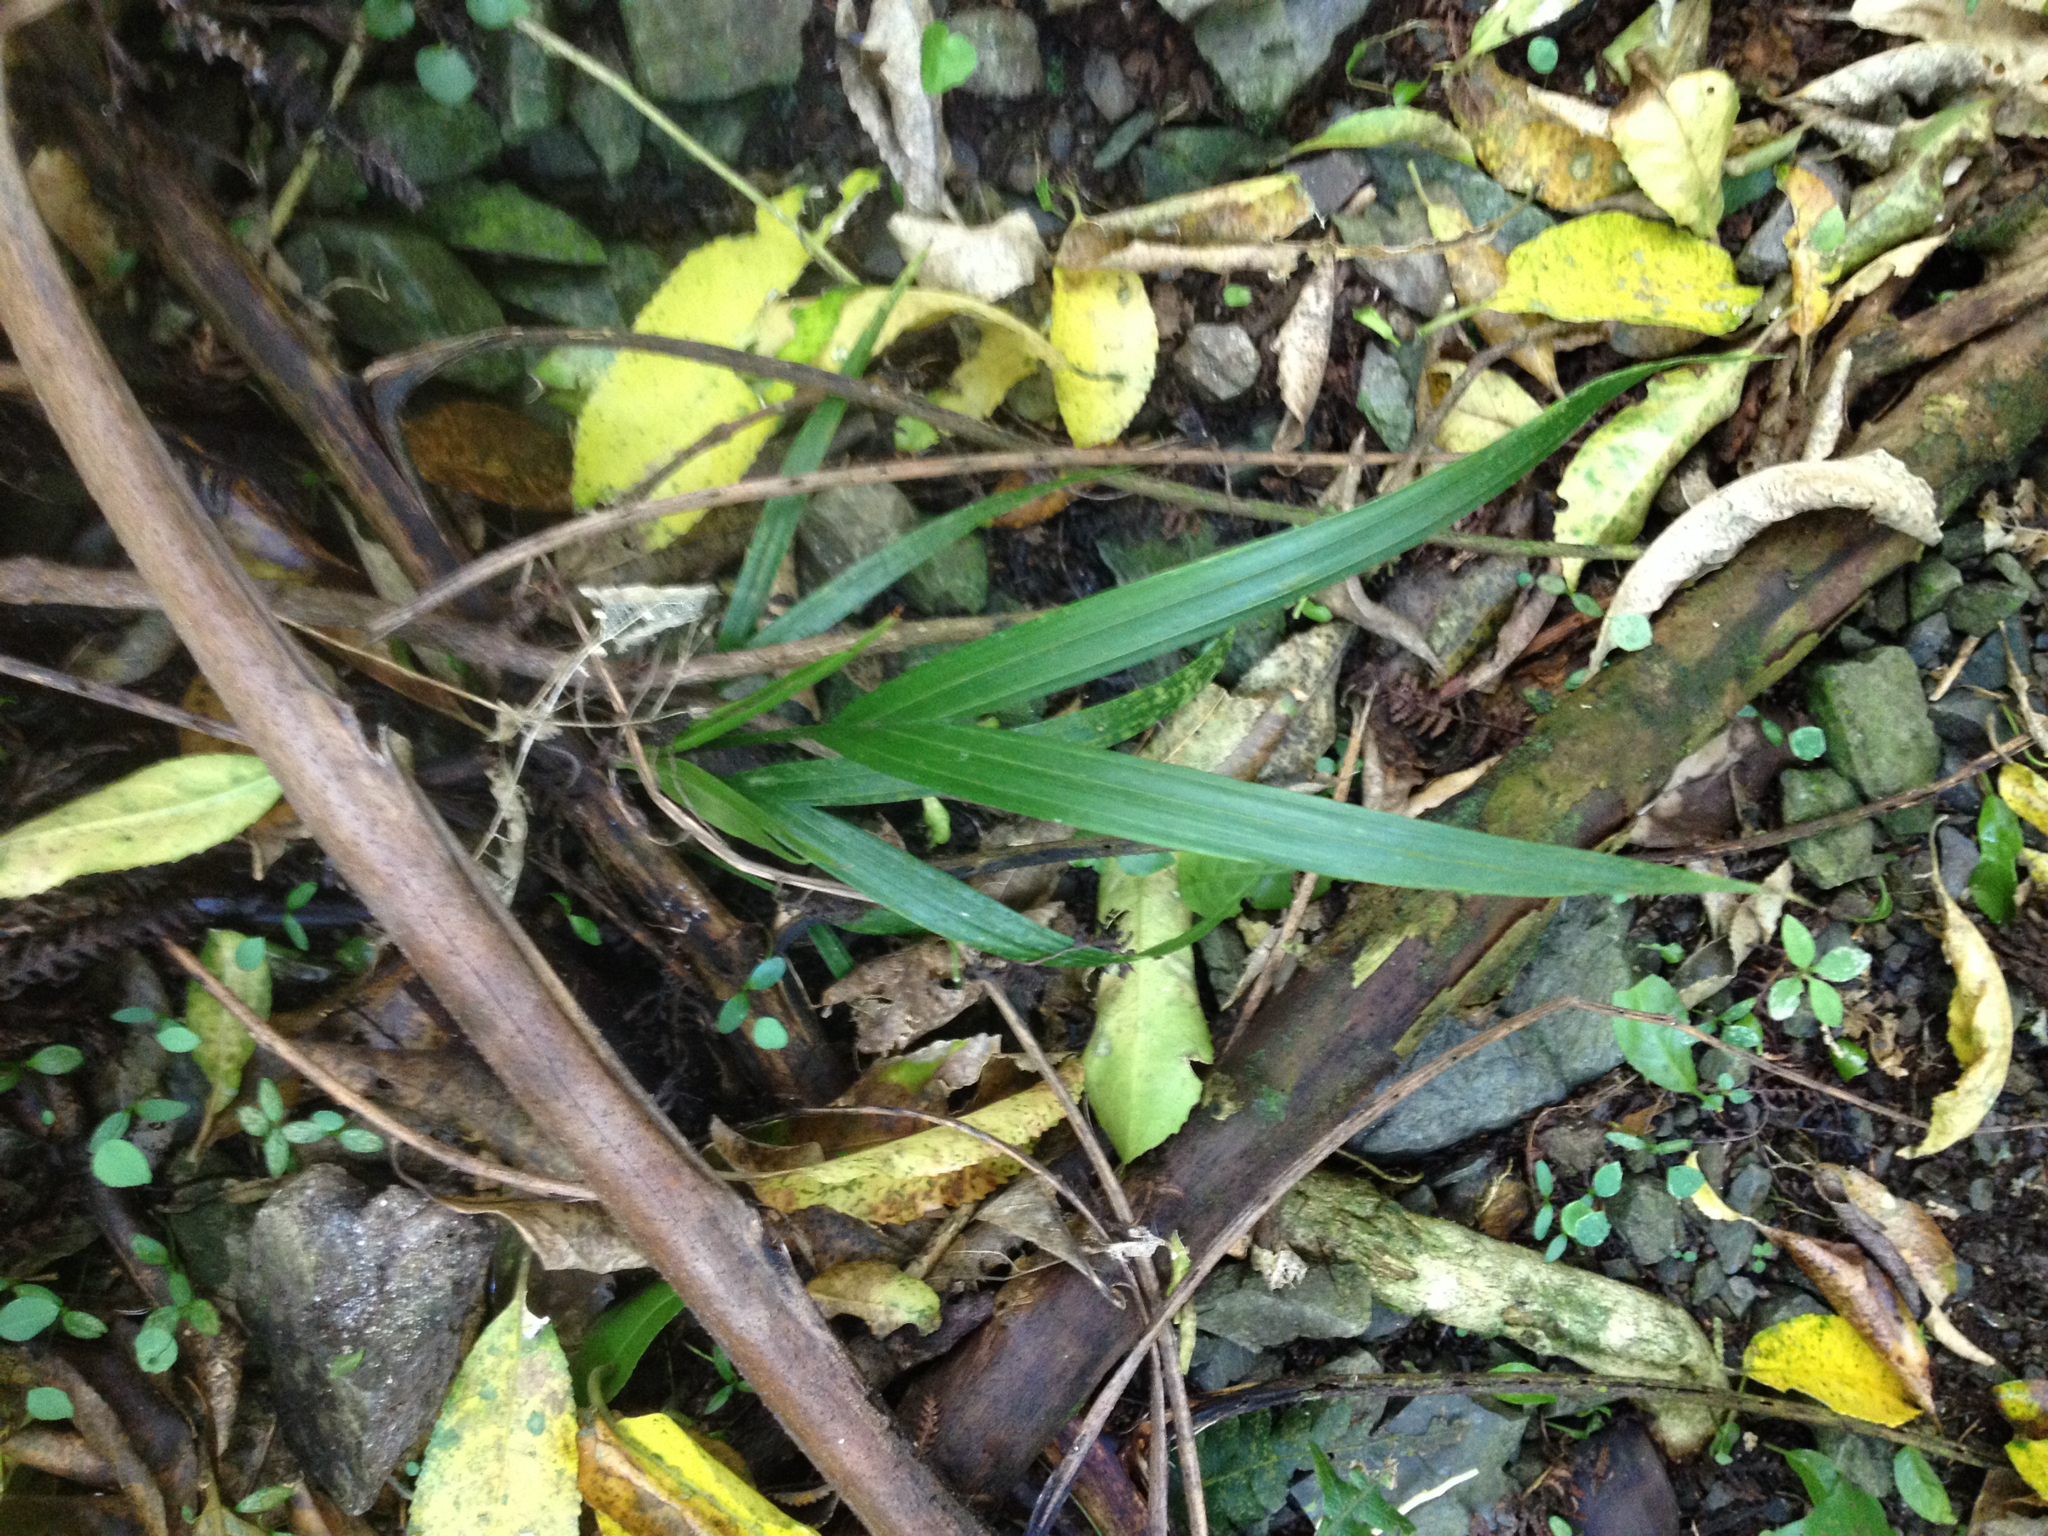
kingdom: Plantae
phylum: Tracheophyta
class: Liliopsida
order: Arecales
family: Arecaceae
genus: Rhopalostylis
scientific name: Rhopalostylis sapida
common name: Feather-duster palm
